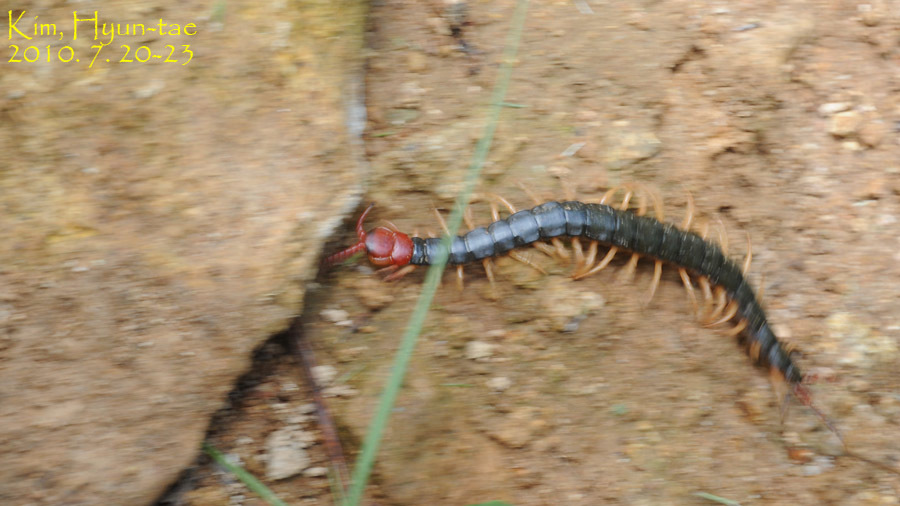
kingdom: Animalia
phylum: Arthropoda
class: Chilopoda
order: Scolopendromorpha
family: Scolopendridae
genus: Scolopendra
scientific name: Scolopendra mutilans
